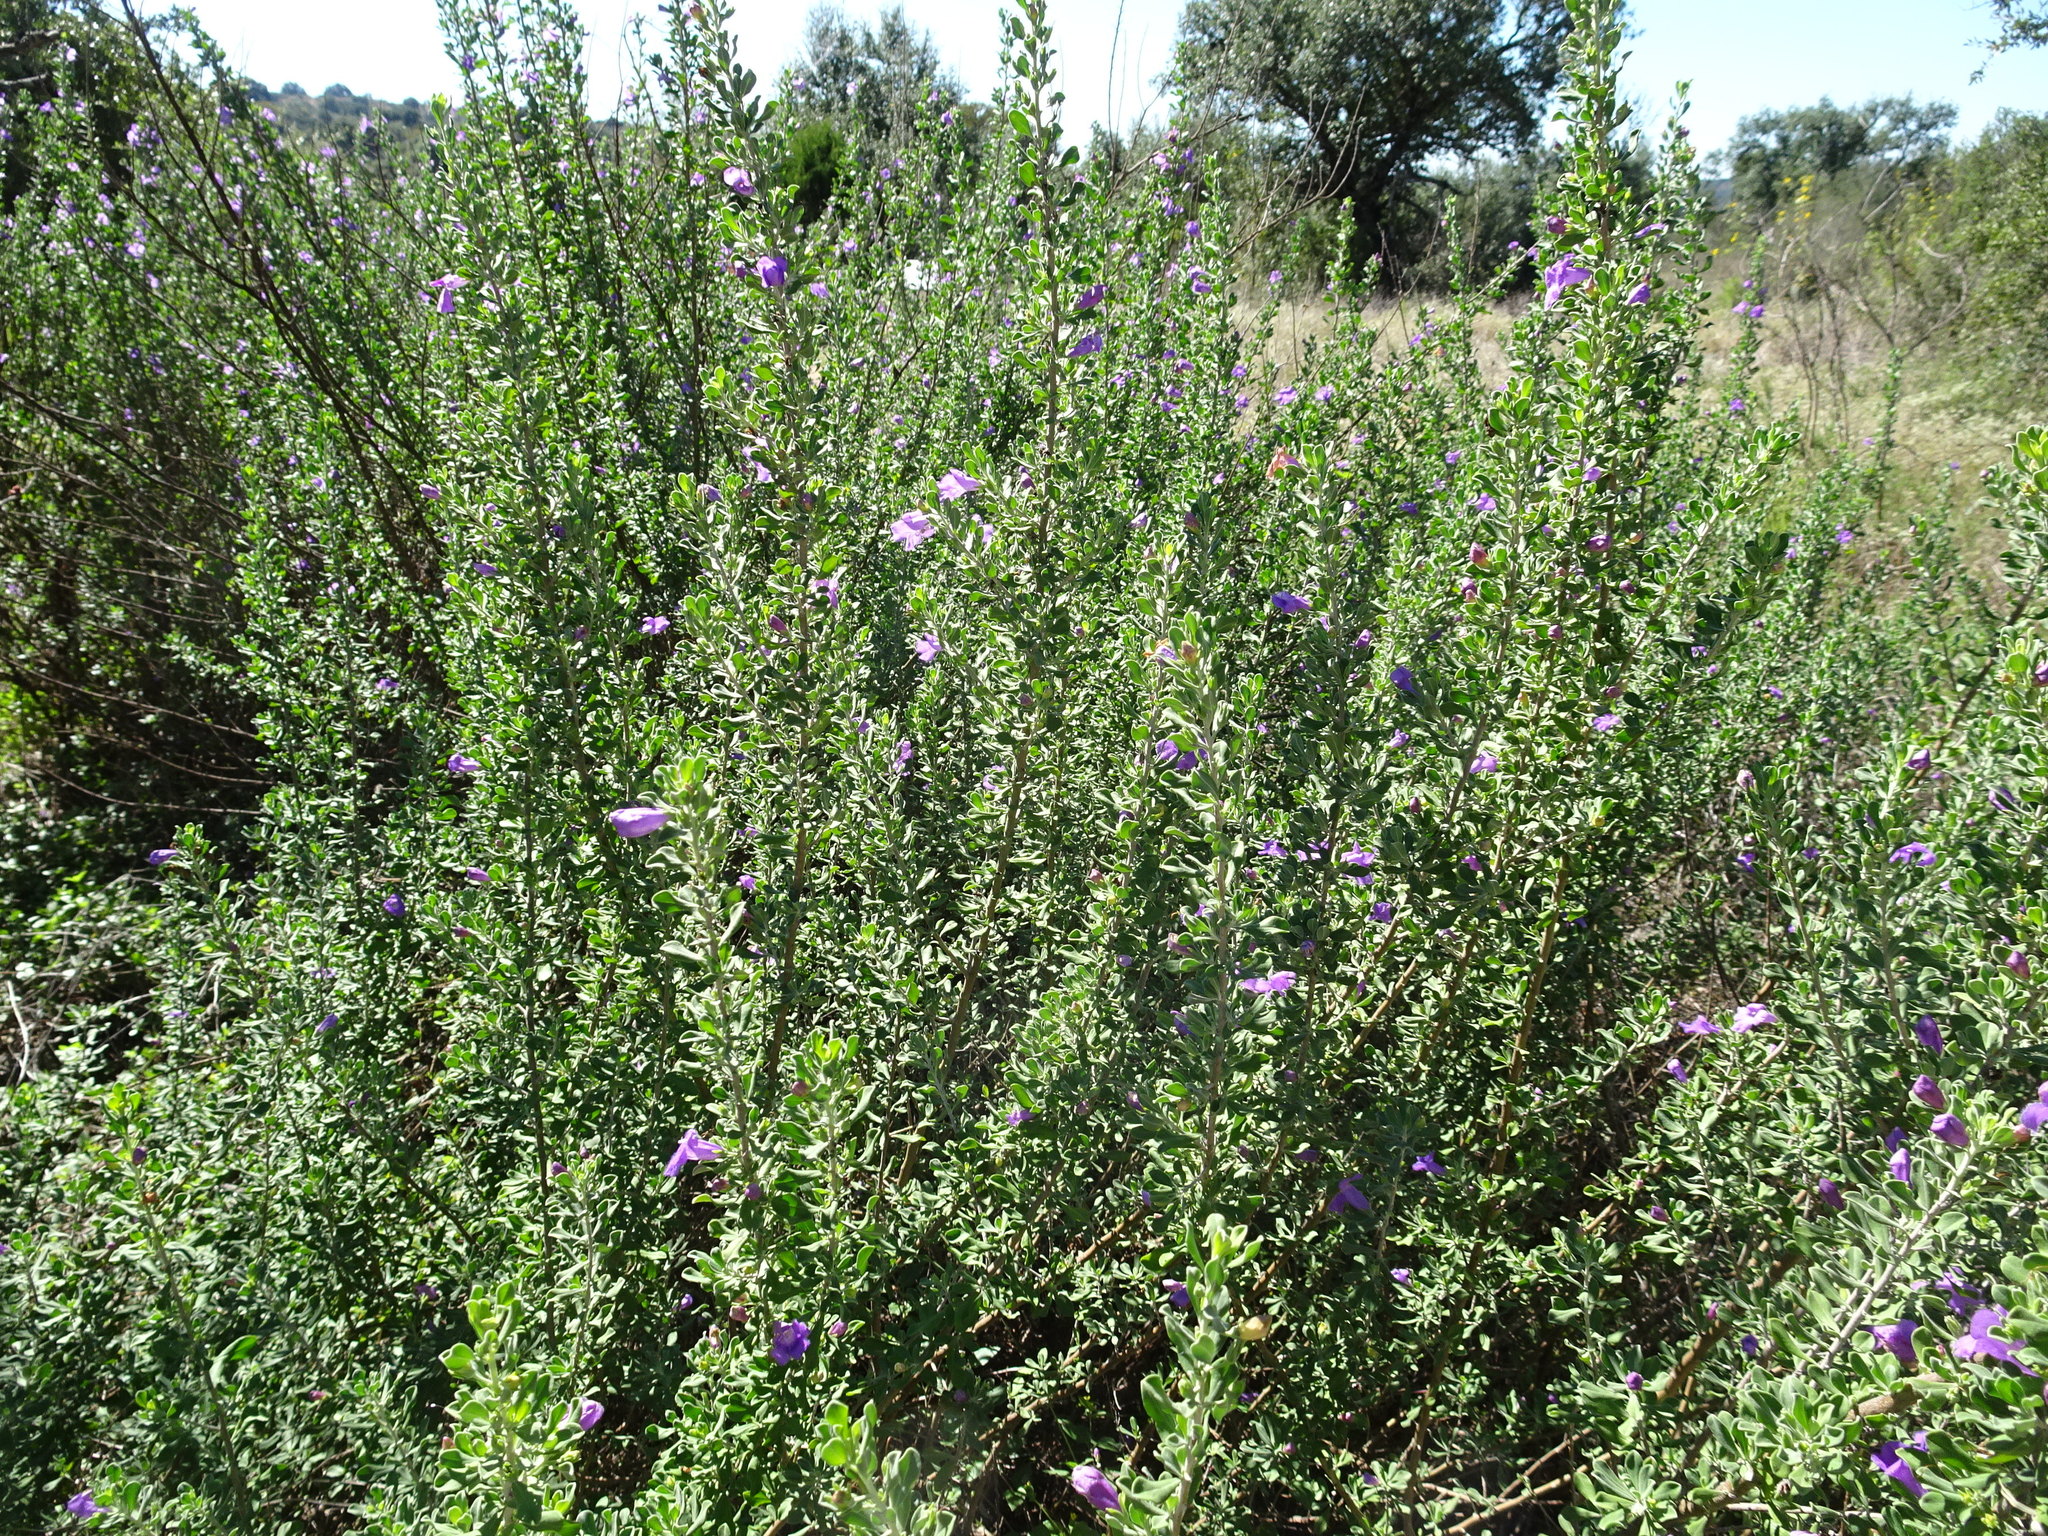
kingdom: Plantae
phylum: Tracheophyta
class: Magnoliopsida
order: Lamiales
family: Scrophulariaceae
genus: Leucophyllum
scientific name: Leucophyllum frutescens
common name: Texas silverleaf
